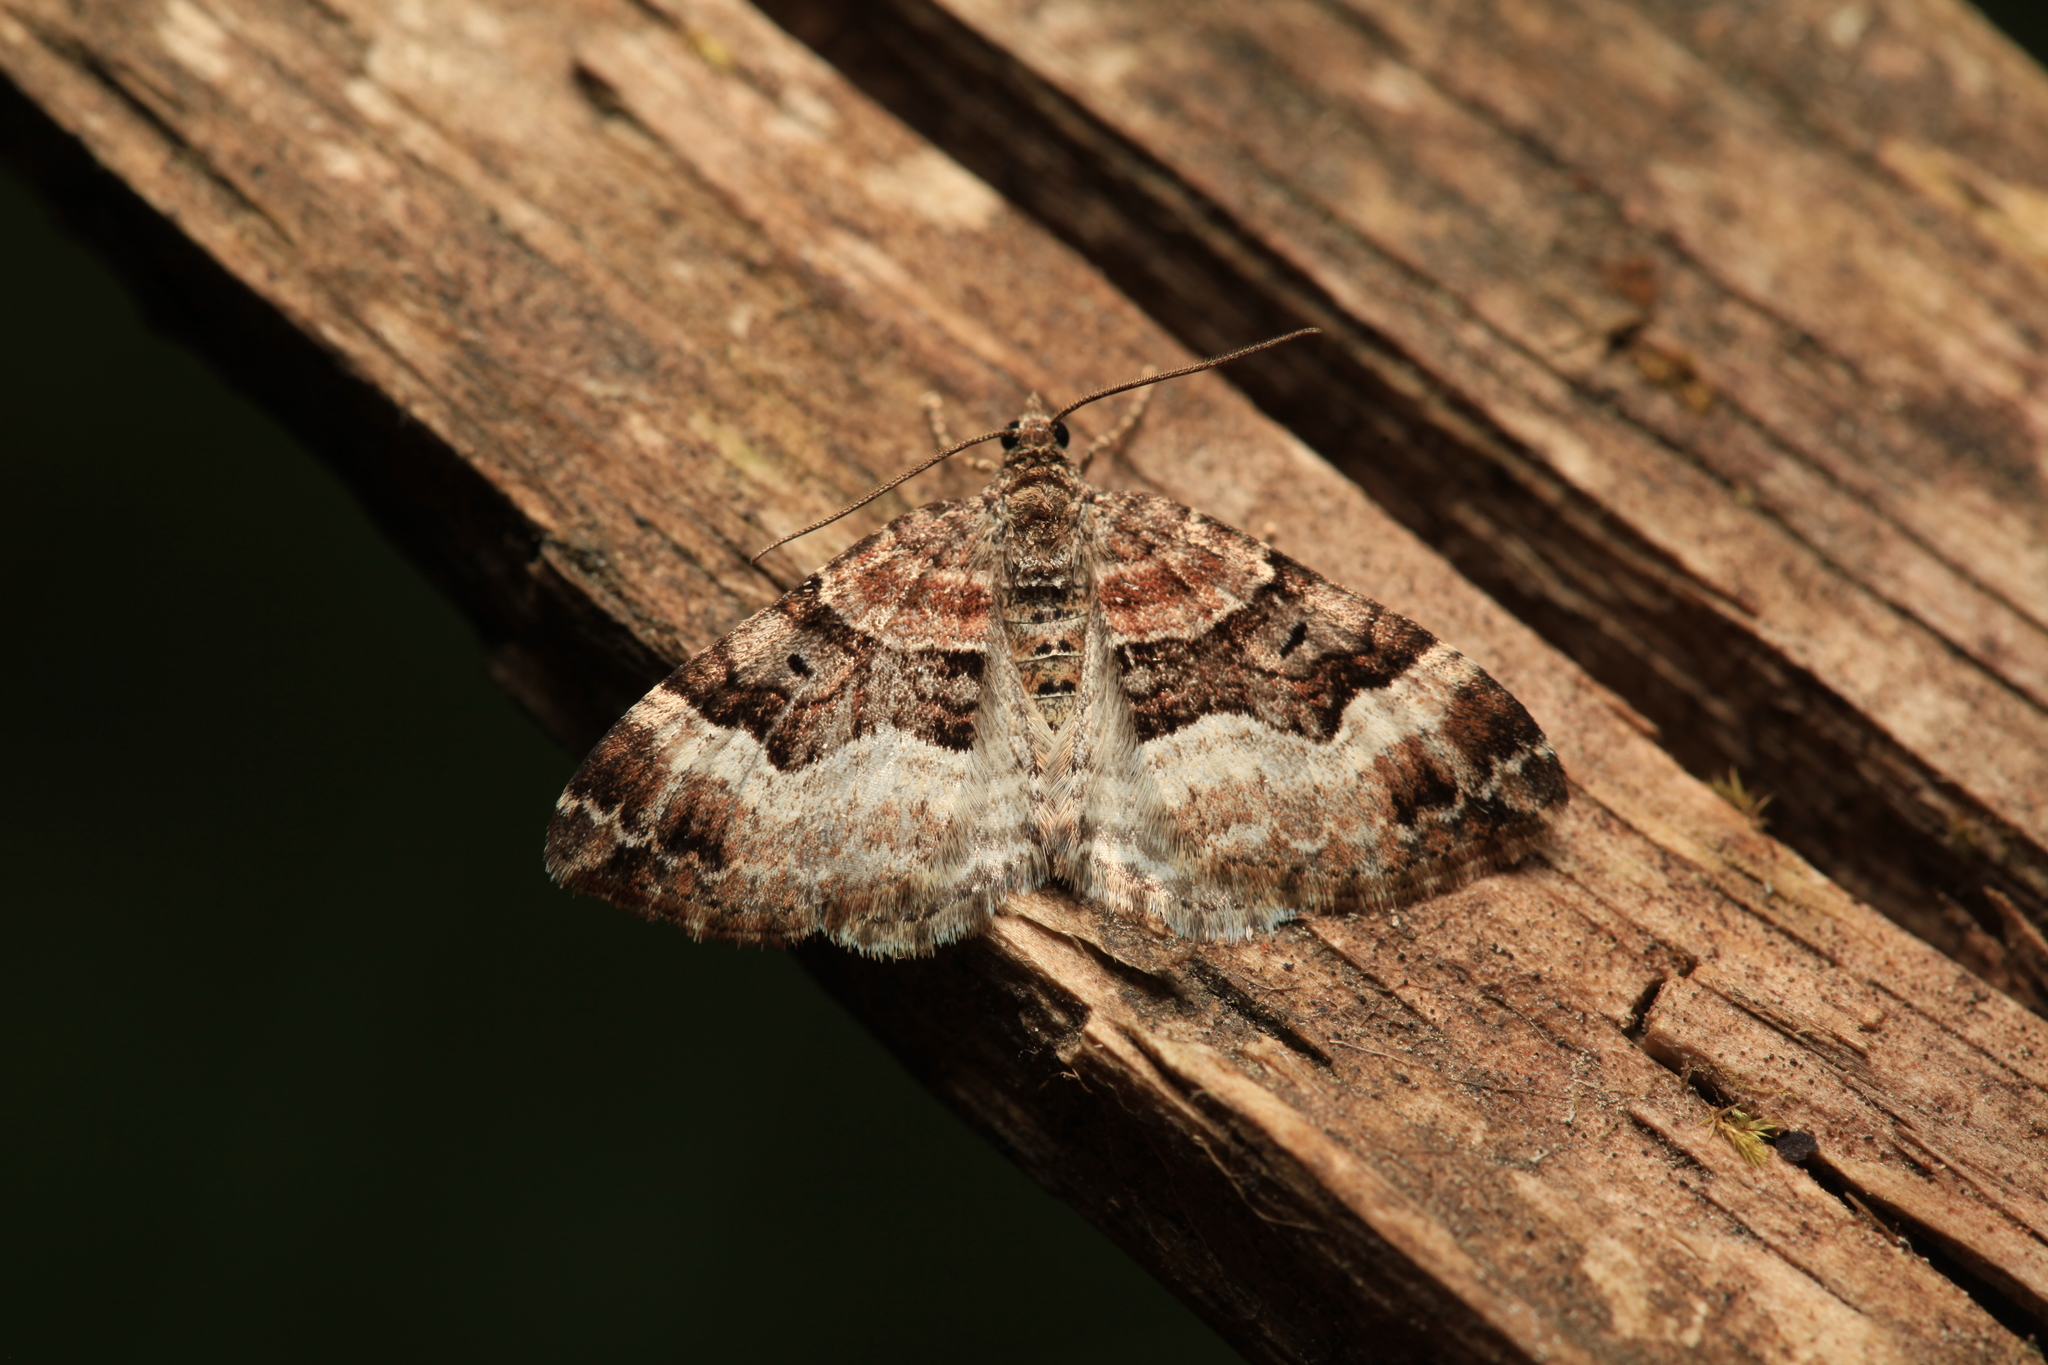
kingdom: Animalia
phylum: Arthropoda
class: Insecta
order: Lepidoptera
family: Geometridae
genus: Xanthorhoe
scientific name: Xanthorhoe biriviata
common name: Balsam carpet
